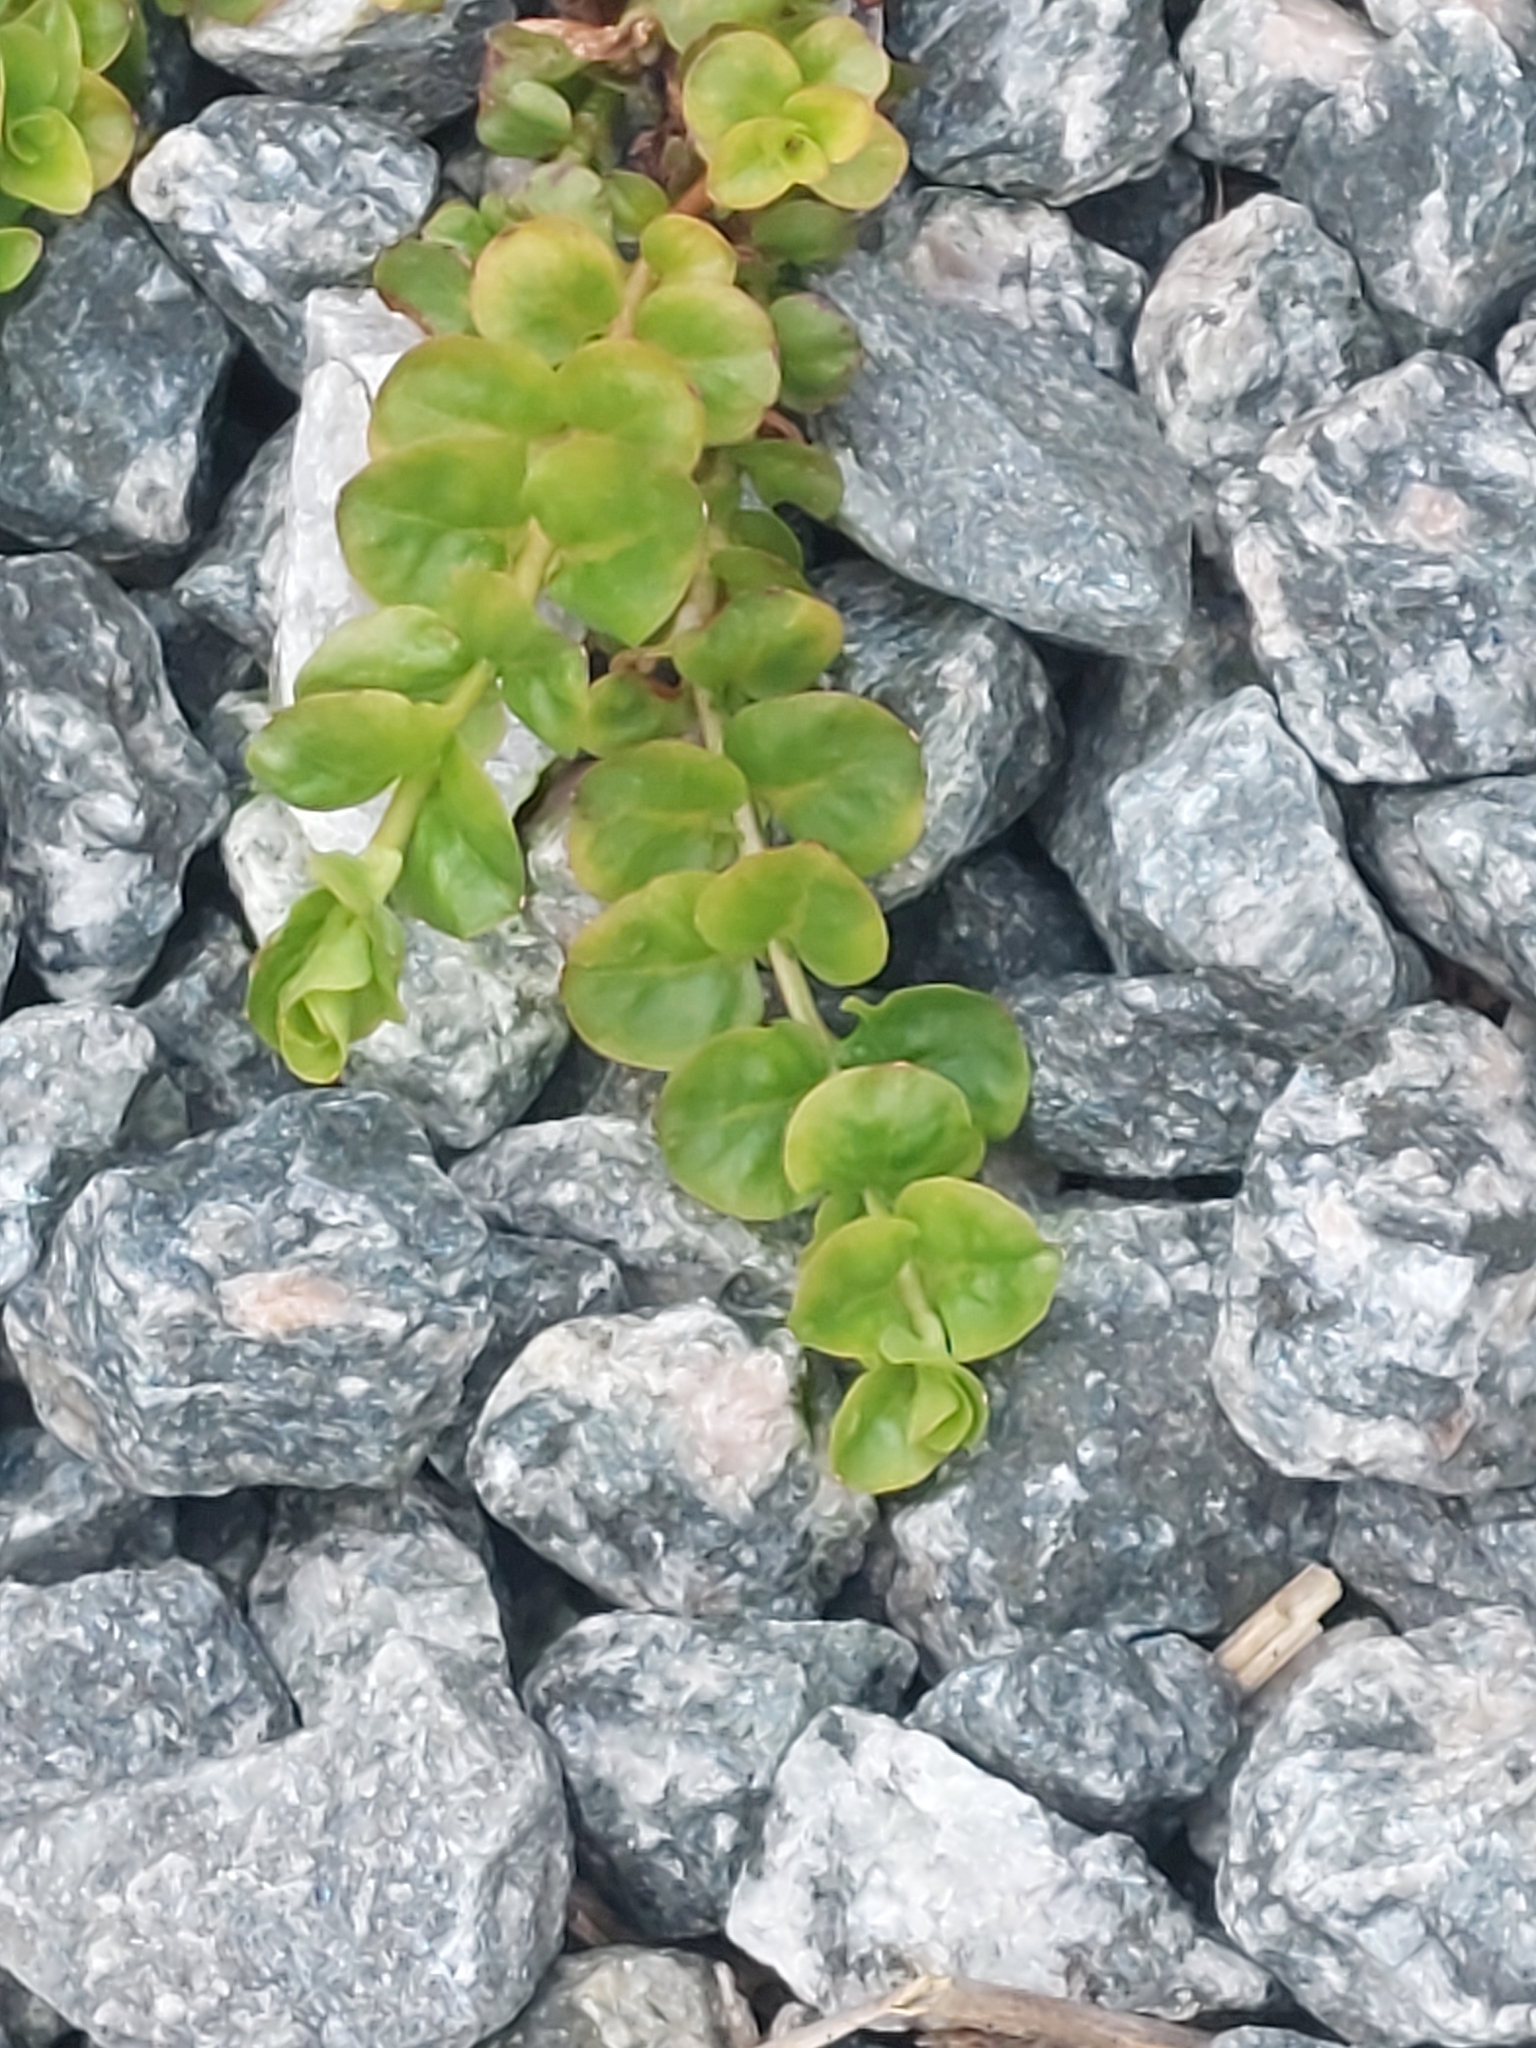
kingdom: Plantae
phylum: Tracheophyta
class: Magnoliopsida
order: Ericales
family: Primulaceae
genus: Lysimachia
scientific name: Lysimachia nummularia
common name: Moneywort
